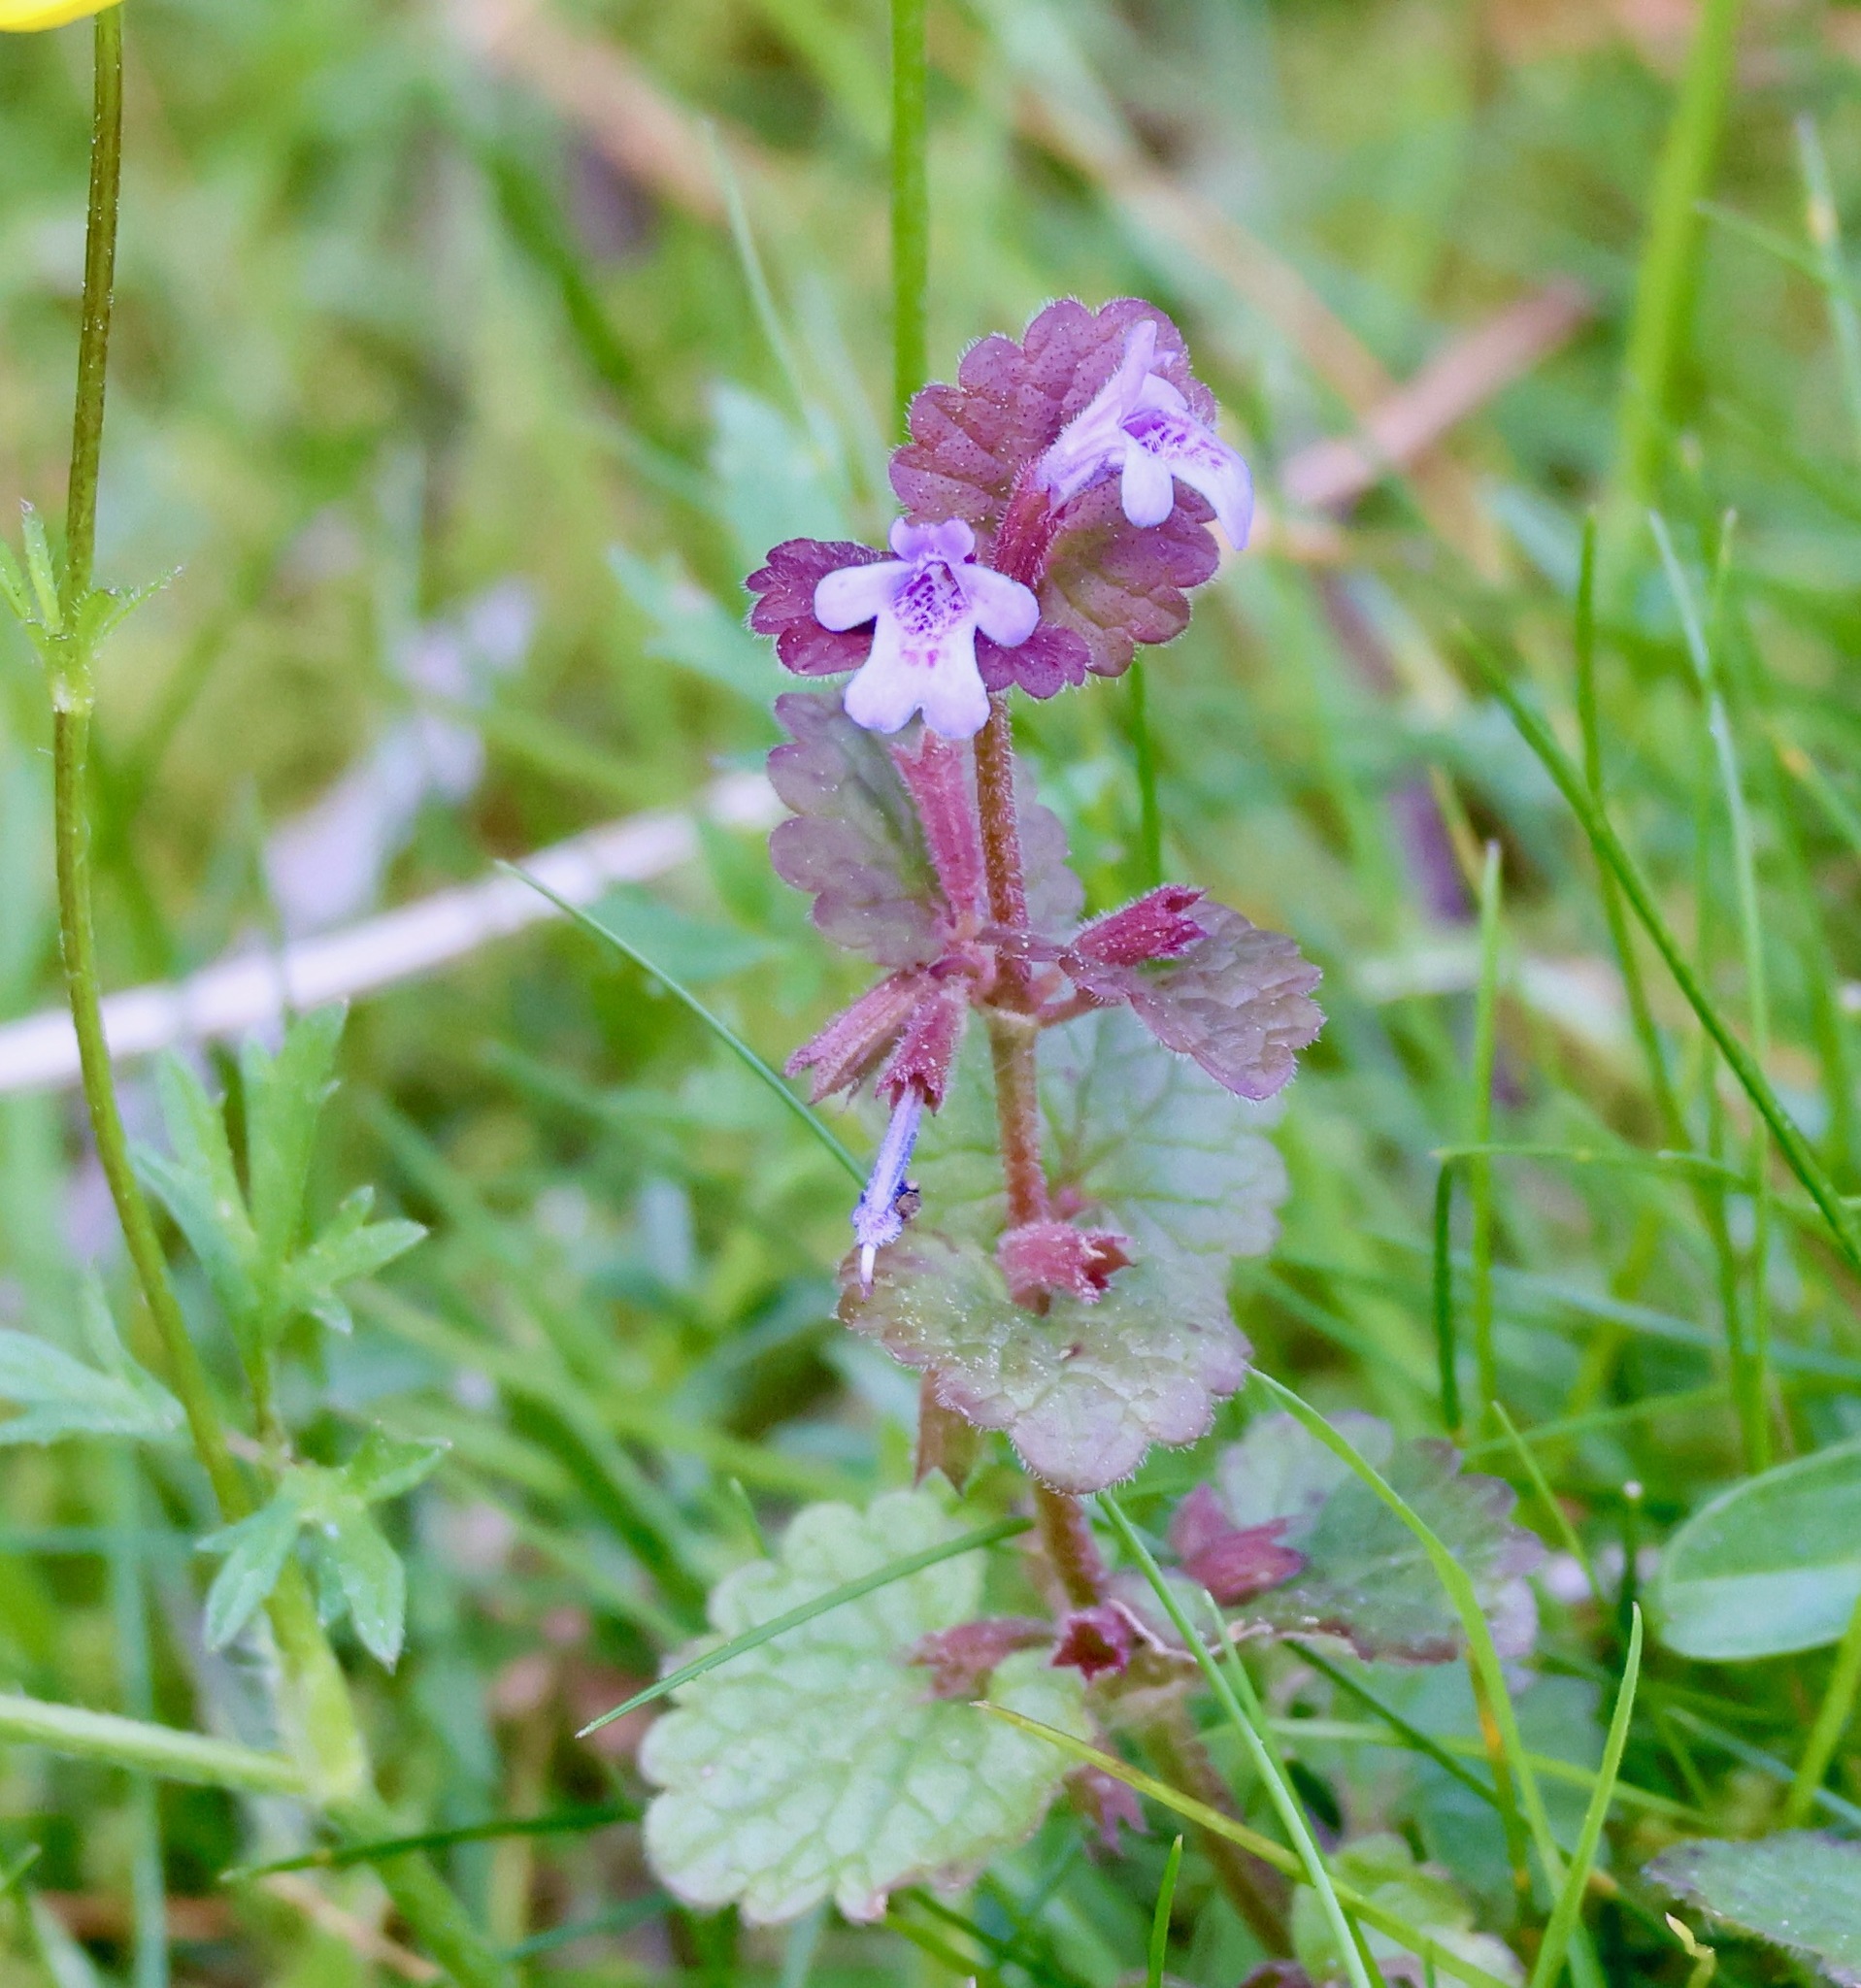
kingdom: Plantae
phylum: Tracheophyta
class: Magnoliopsida
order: Lamiales
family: Lamiaceae
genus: Glechoma
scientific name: Glechoma hederacea
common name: Ground ivy
